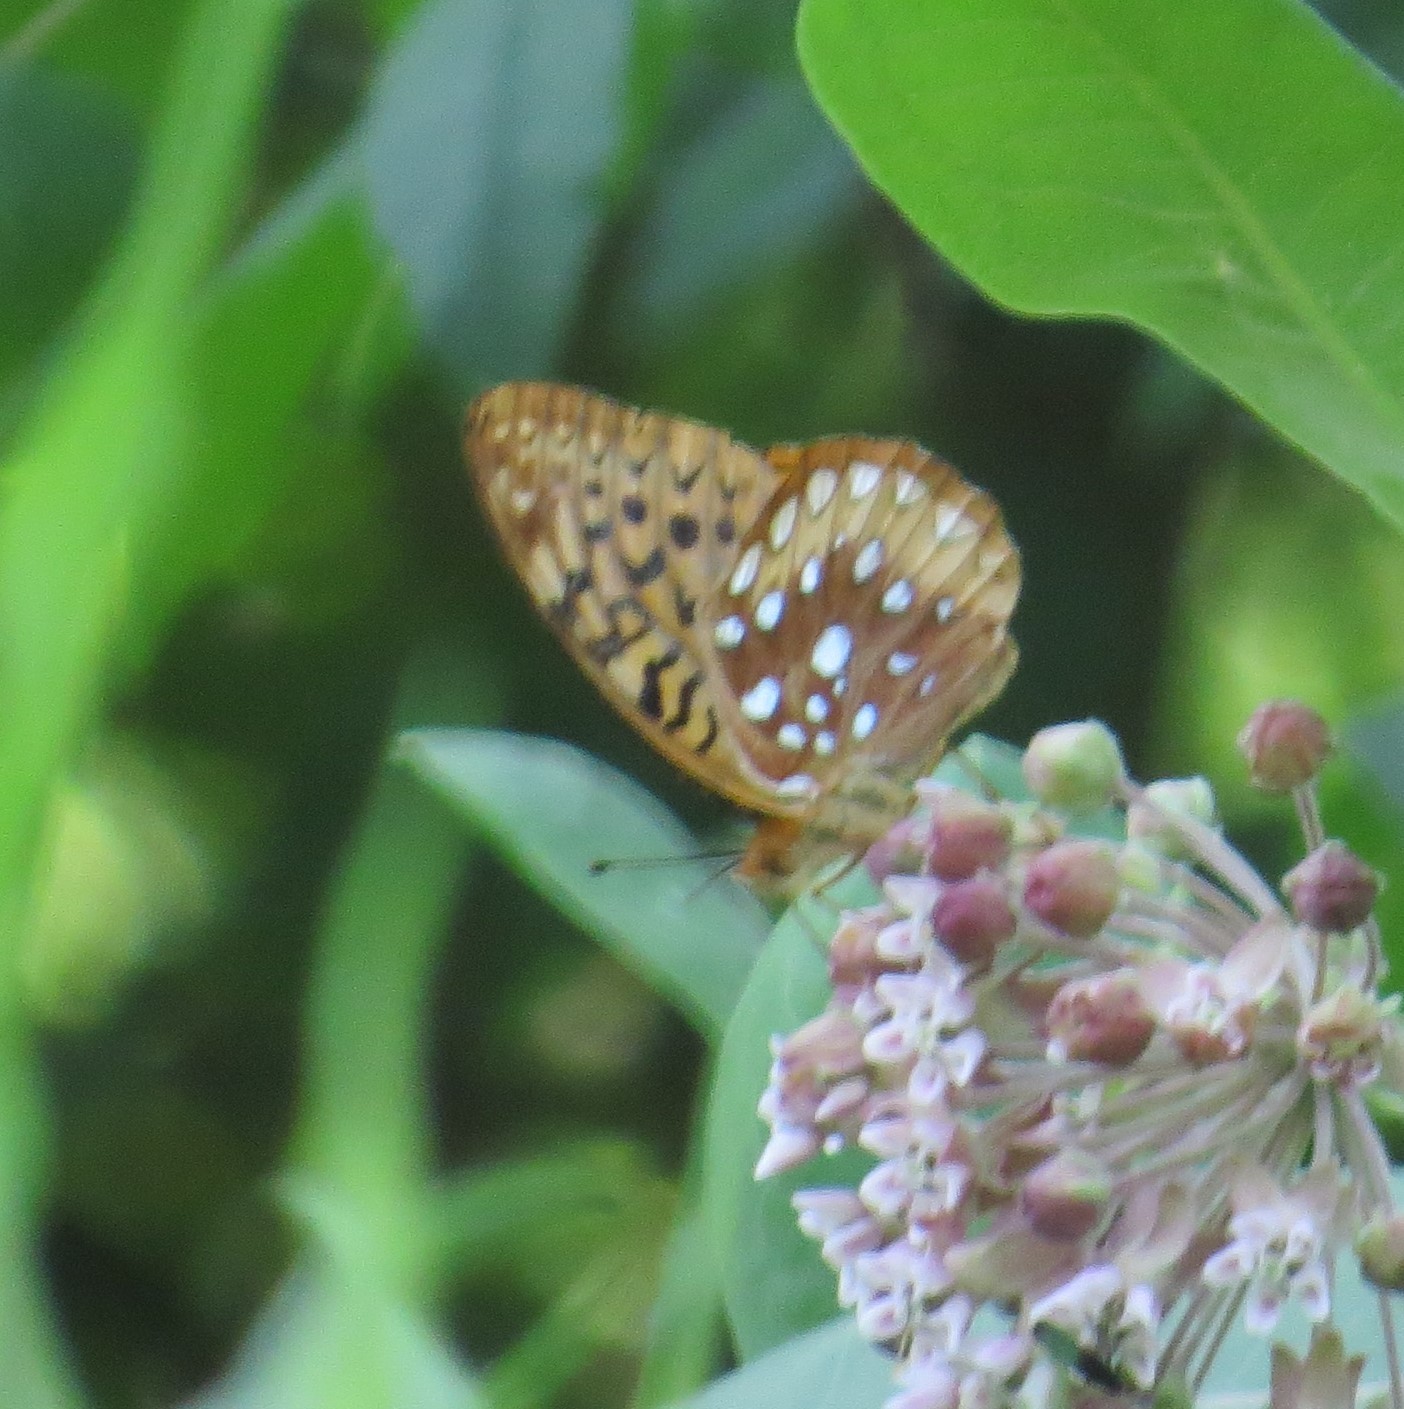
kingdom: Animalia
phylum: Arthropoda
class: Insecta
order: Lepidoptera
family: Nymphalidae
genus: Speyeria
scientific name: Speyeria cybele
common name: Great spangled fritillary
